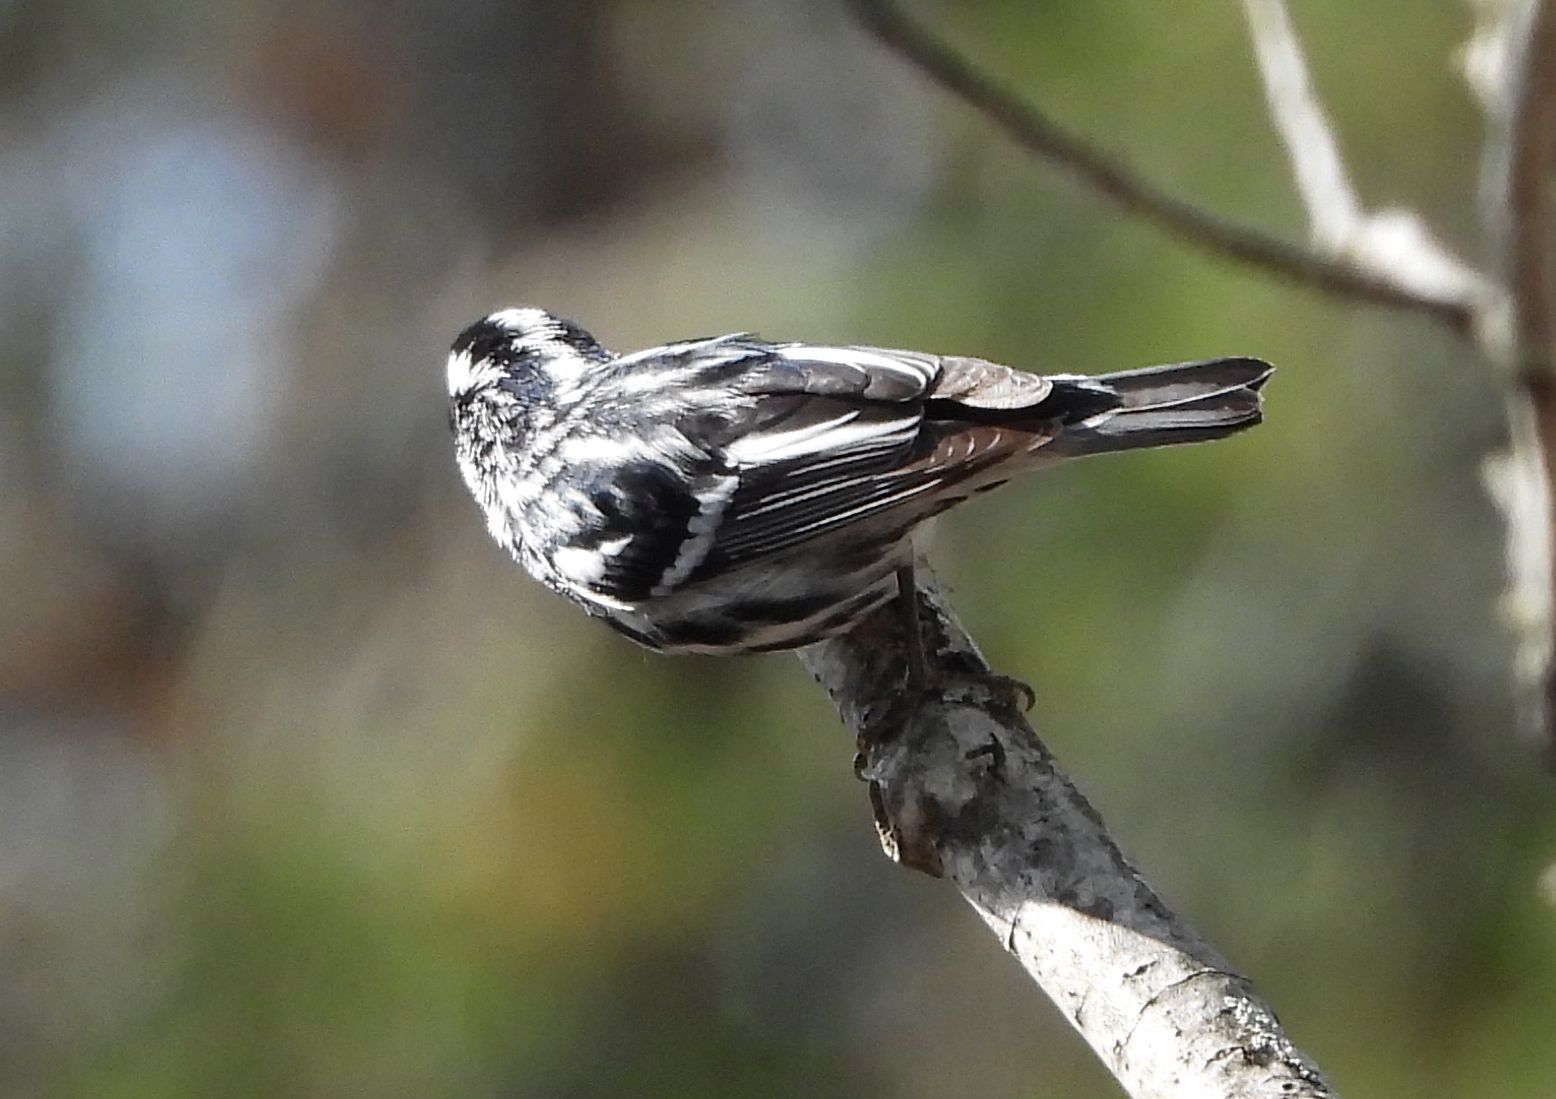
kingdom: Animalia
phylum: Chordata
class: Aves
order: Passeriformes
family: Parulidae
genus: Mniotilta
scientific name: Mniotilta varia
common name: Black-and-white warbler
